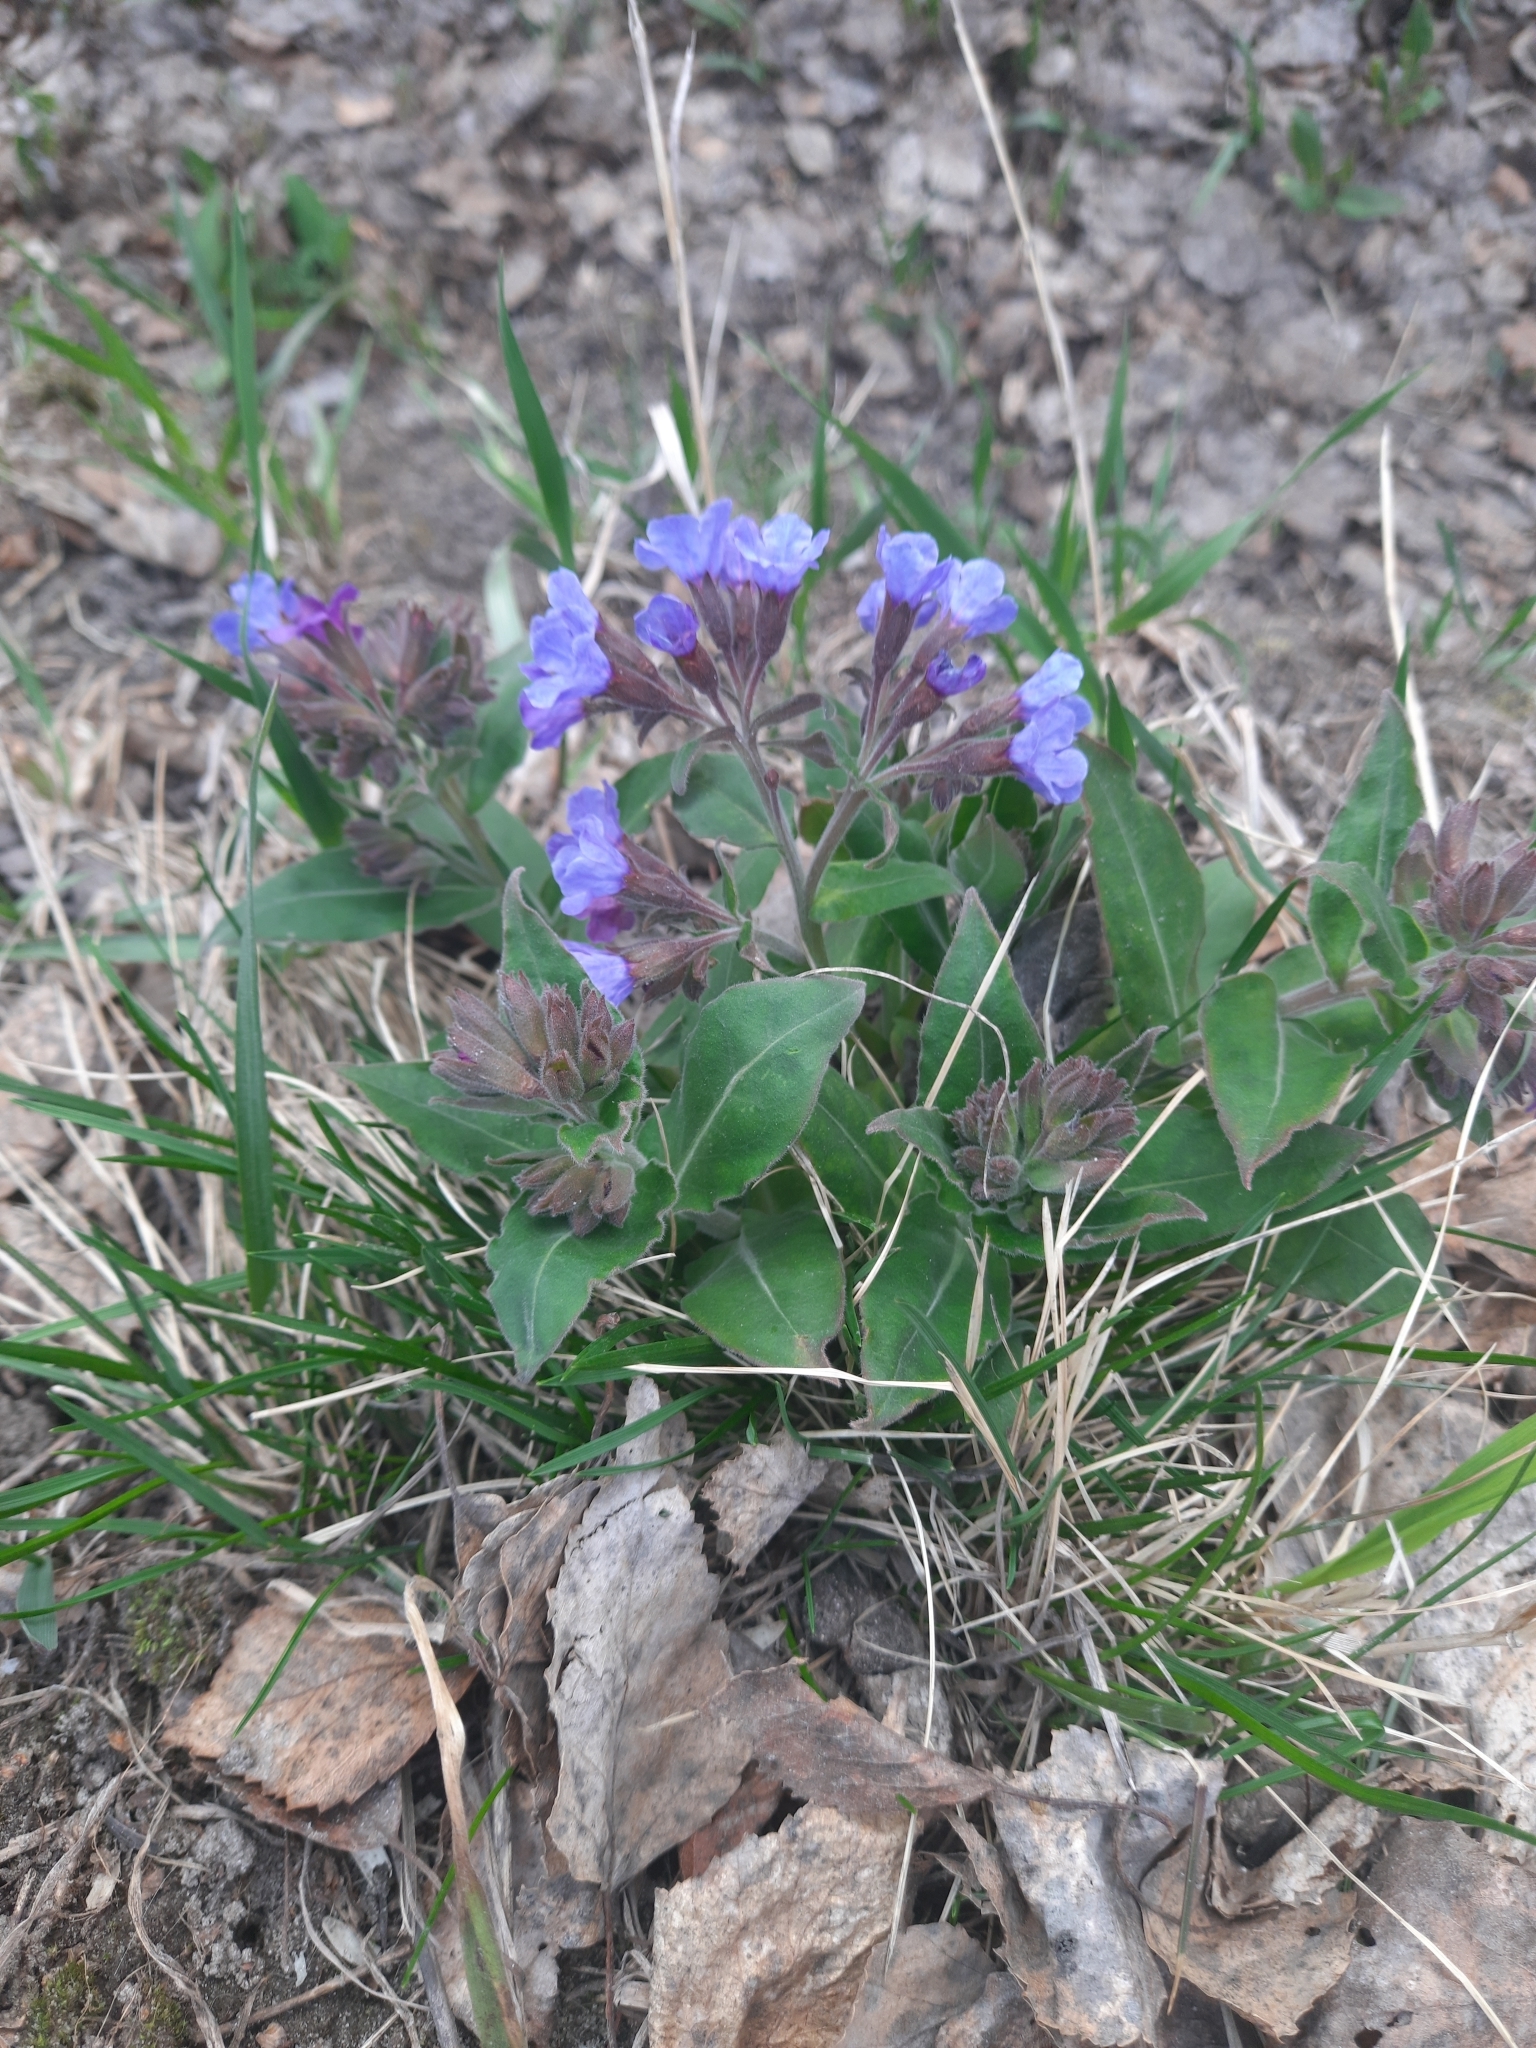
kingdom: Plantae
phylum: Tracheophyta
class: Magnoliopsida
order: Boraginales
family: Boraginaceae
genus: Pulmonaria
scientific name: Pulmonaria mollis
